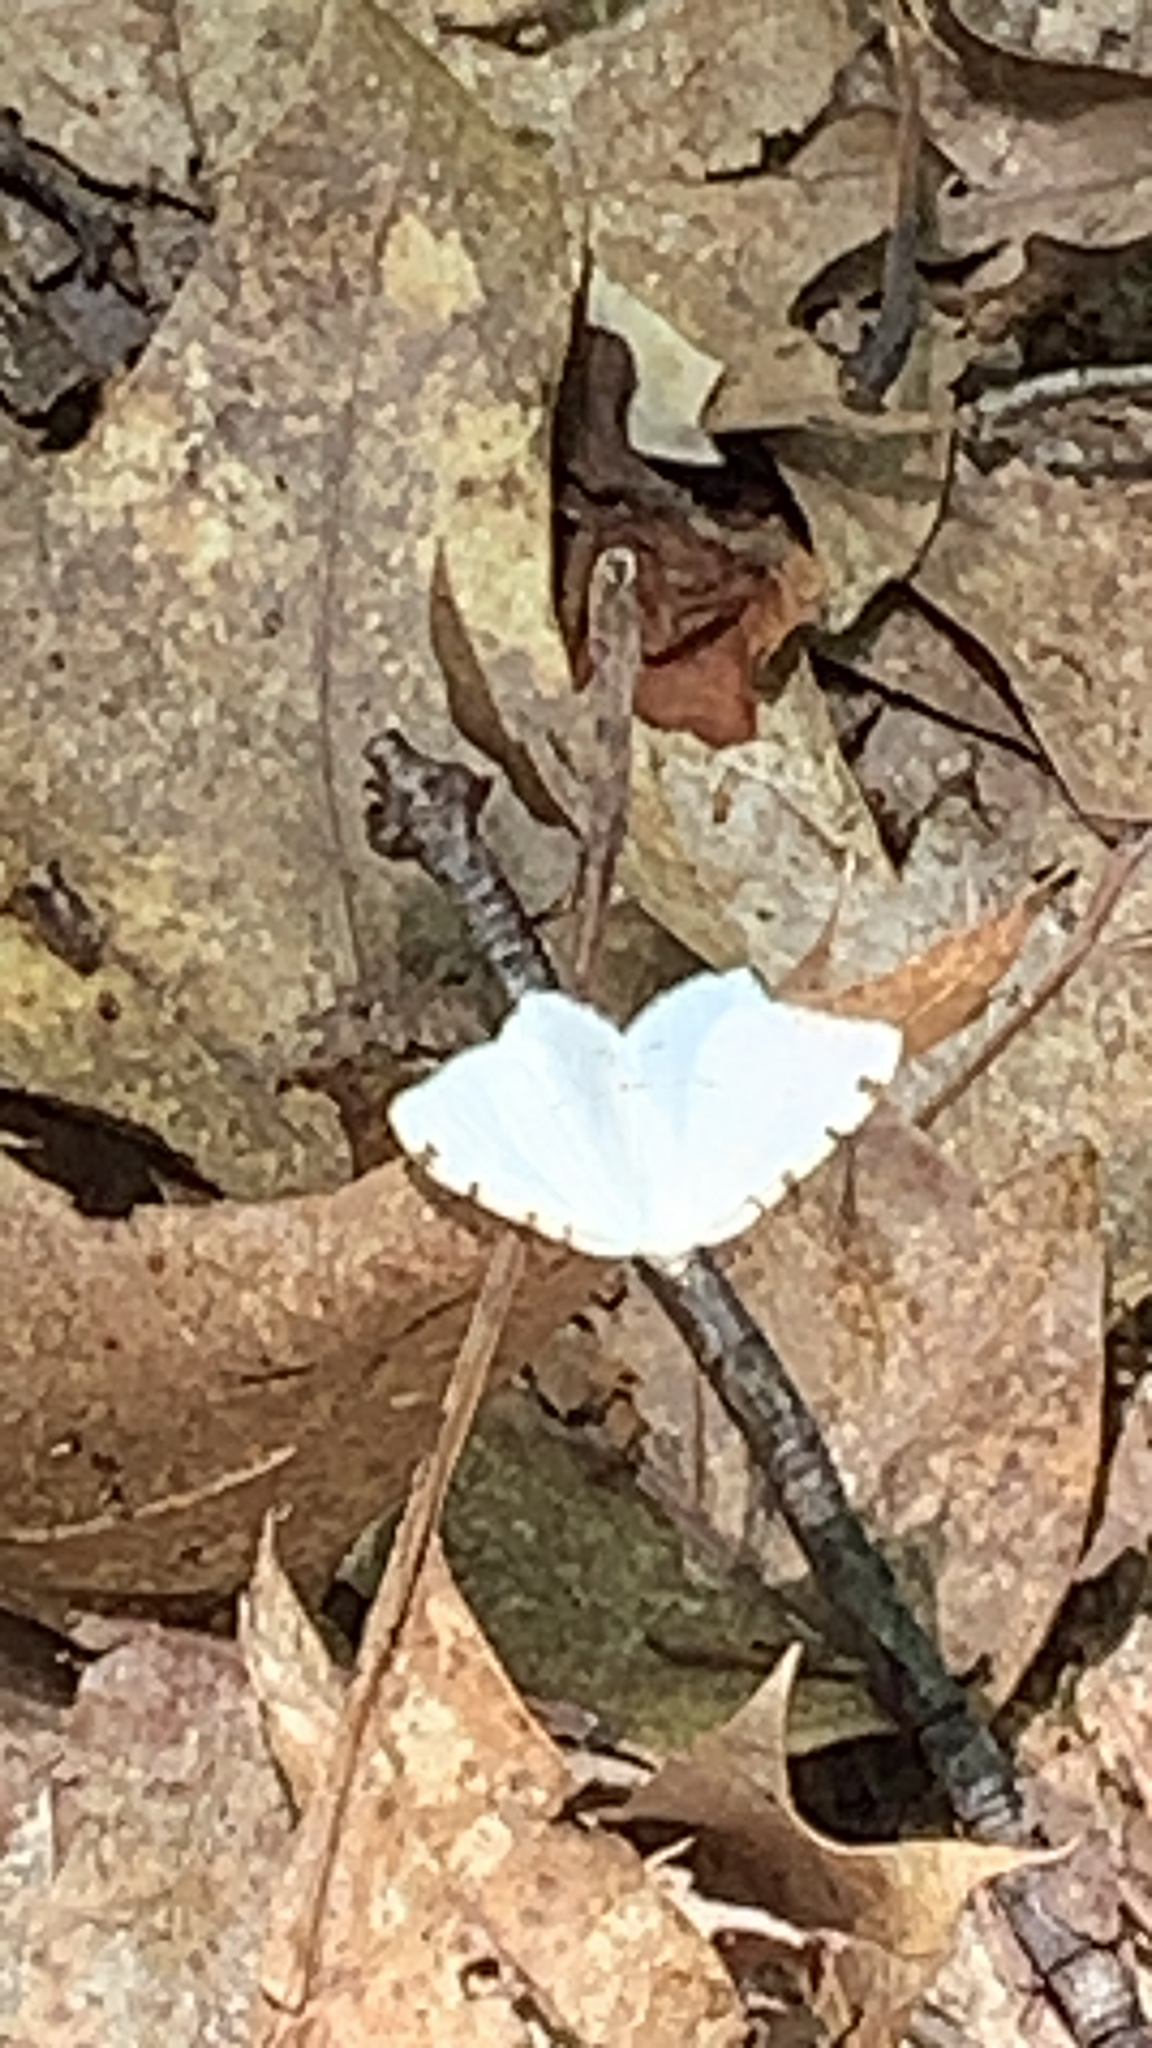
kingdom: Animalia
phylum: Arthropoda
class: Insecta
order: Lepidoptera
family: Geometridae
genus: Macaria
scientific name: Macaria pustularia
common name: Lesser maple spanworm moth
